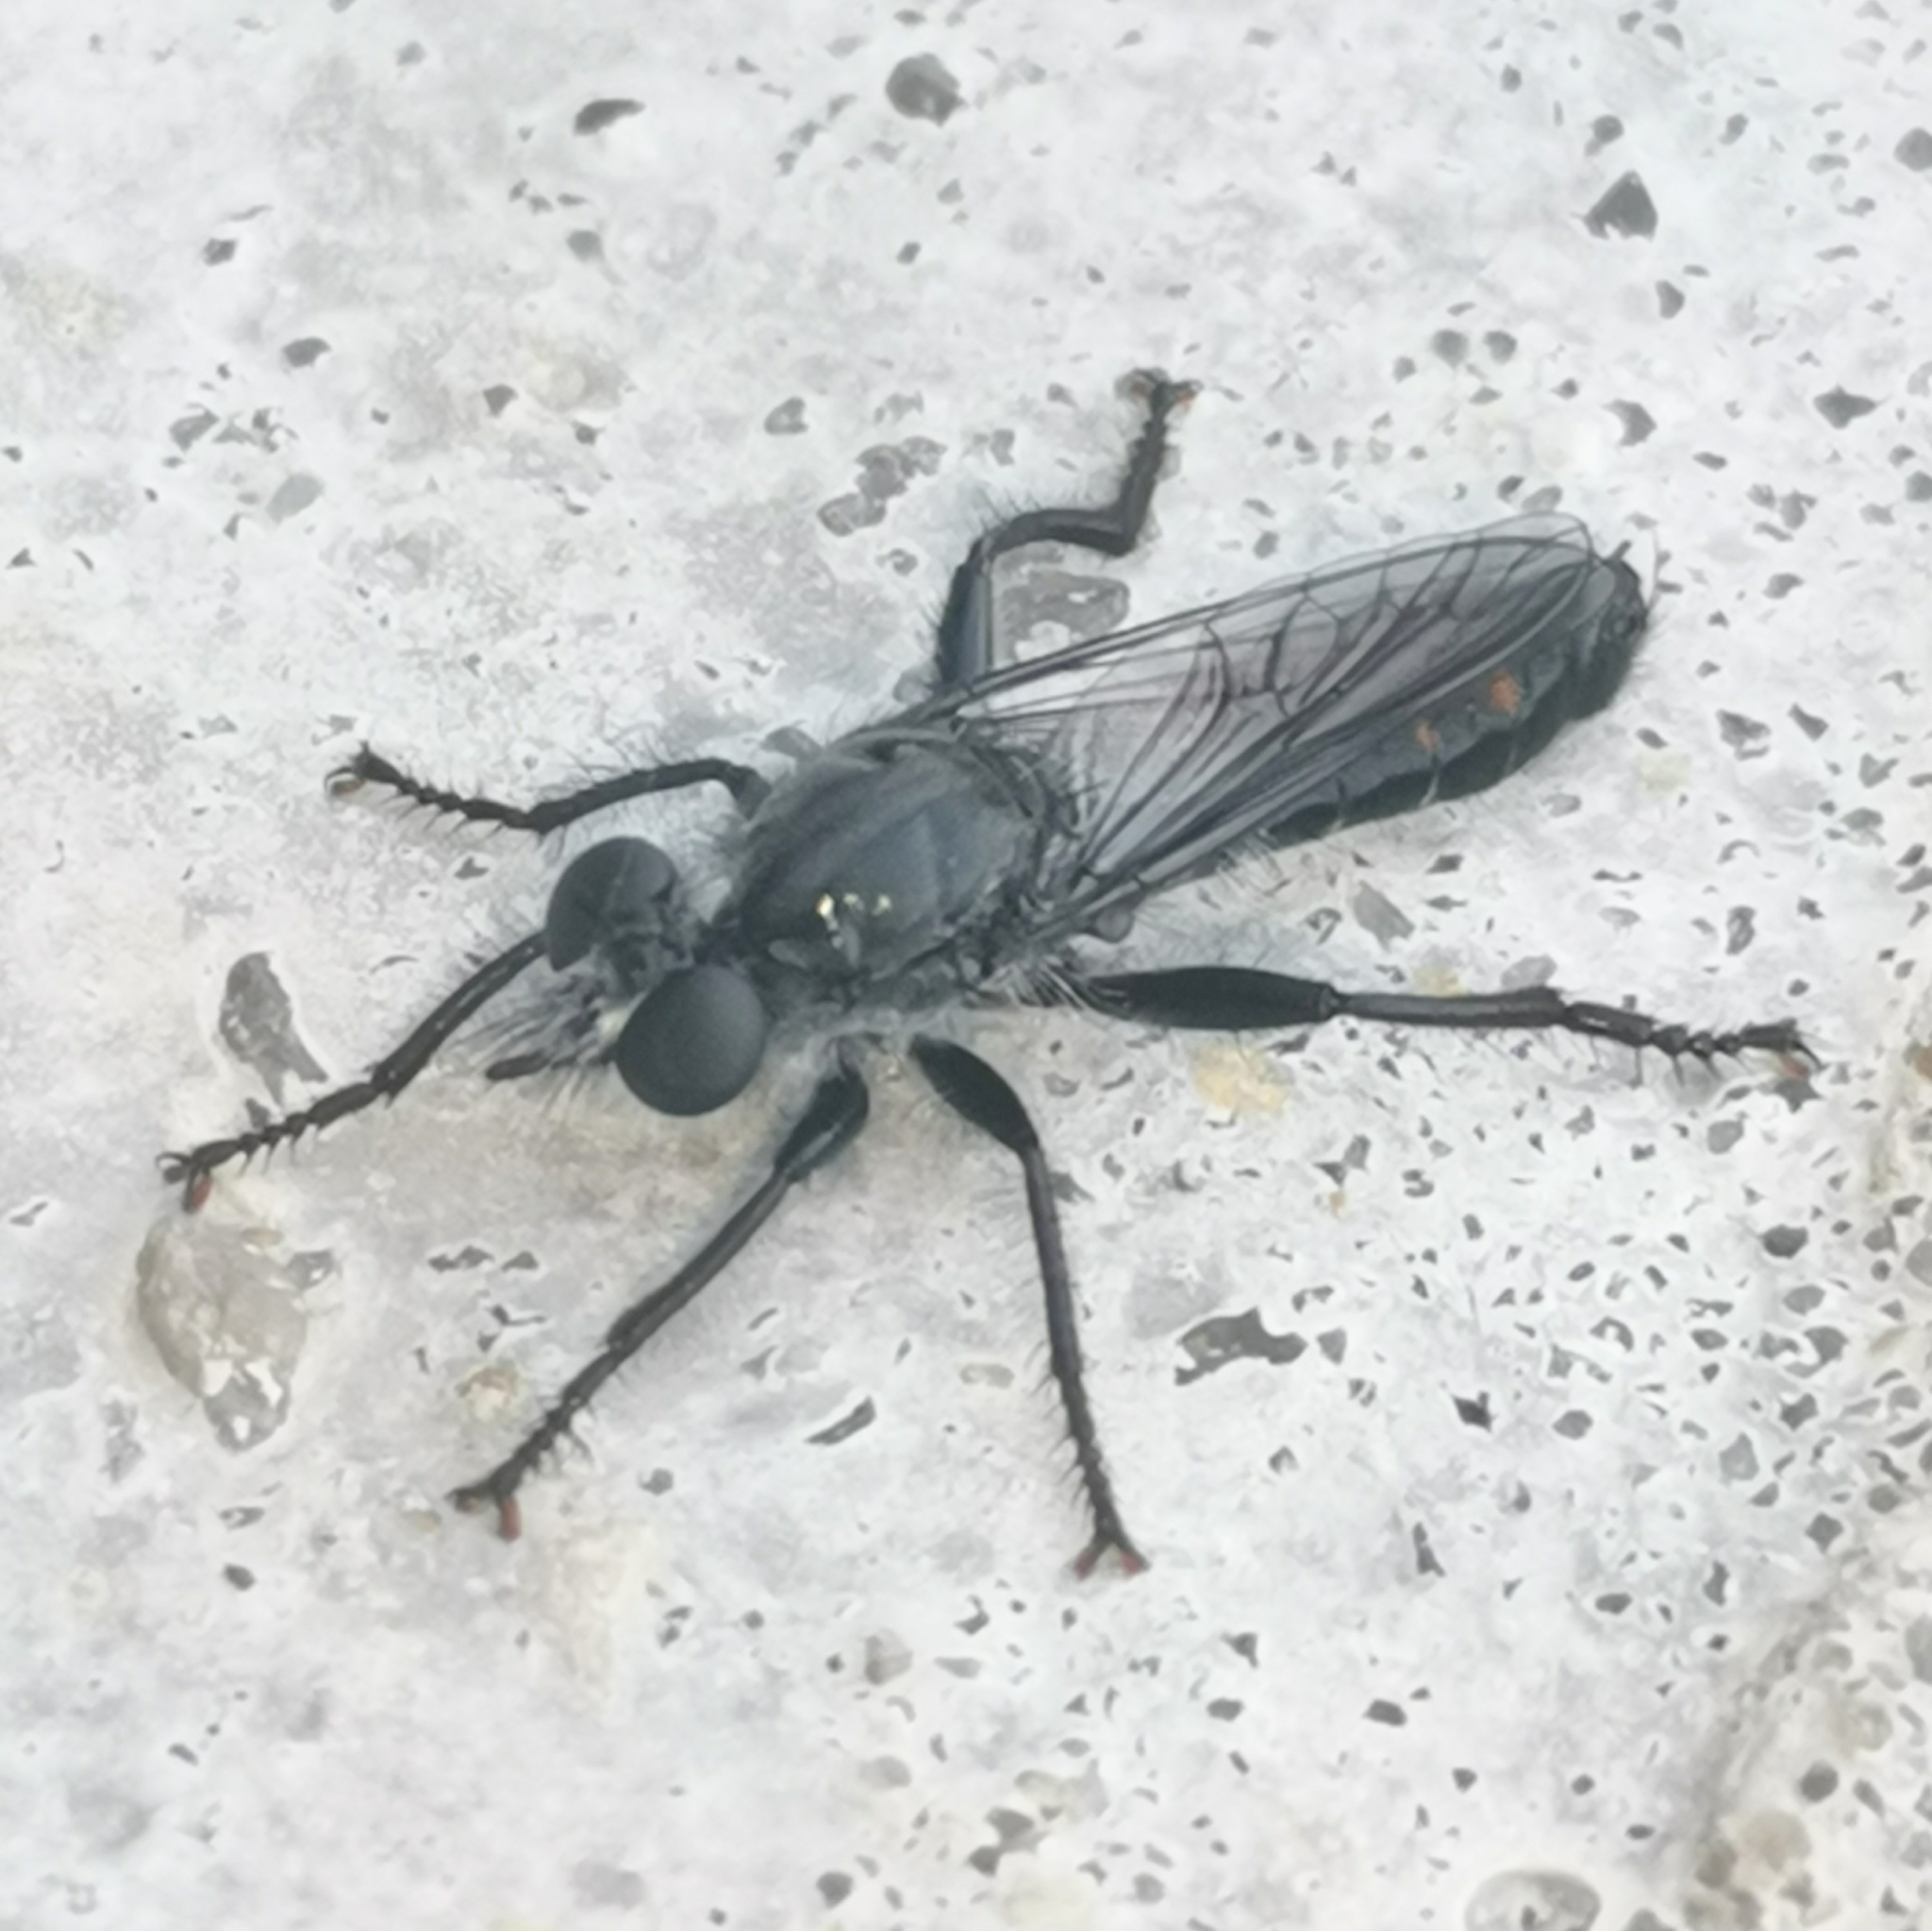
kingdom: Animalia
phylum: Arthropoda
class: Insecta
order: Diptera
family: Asilidae
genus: Laphria
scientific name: Laphria gilva
